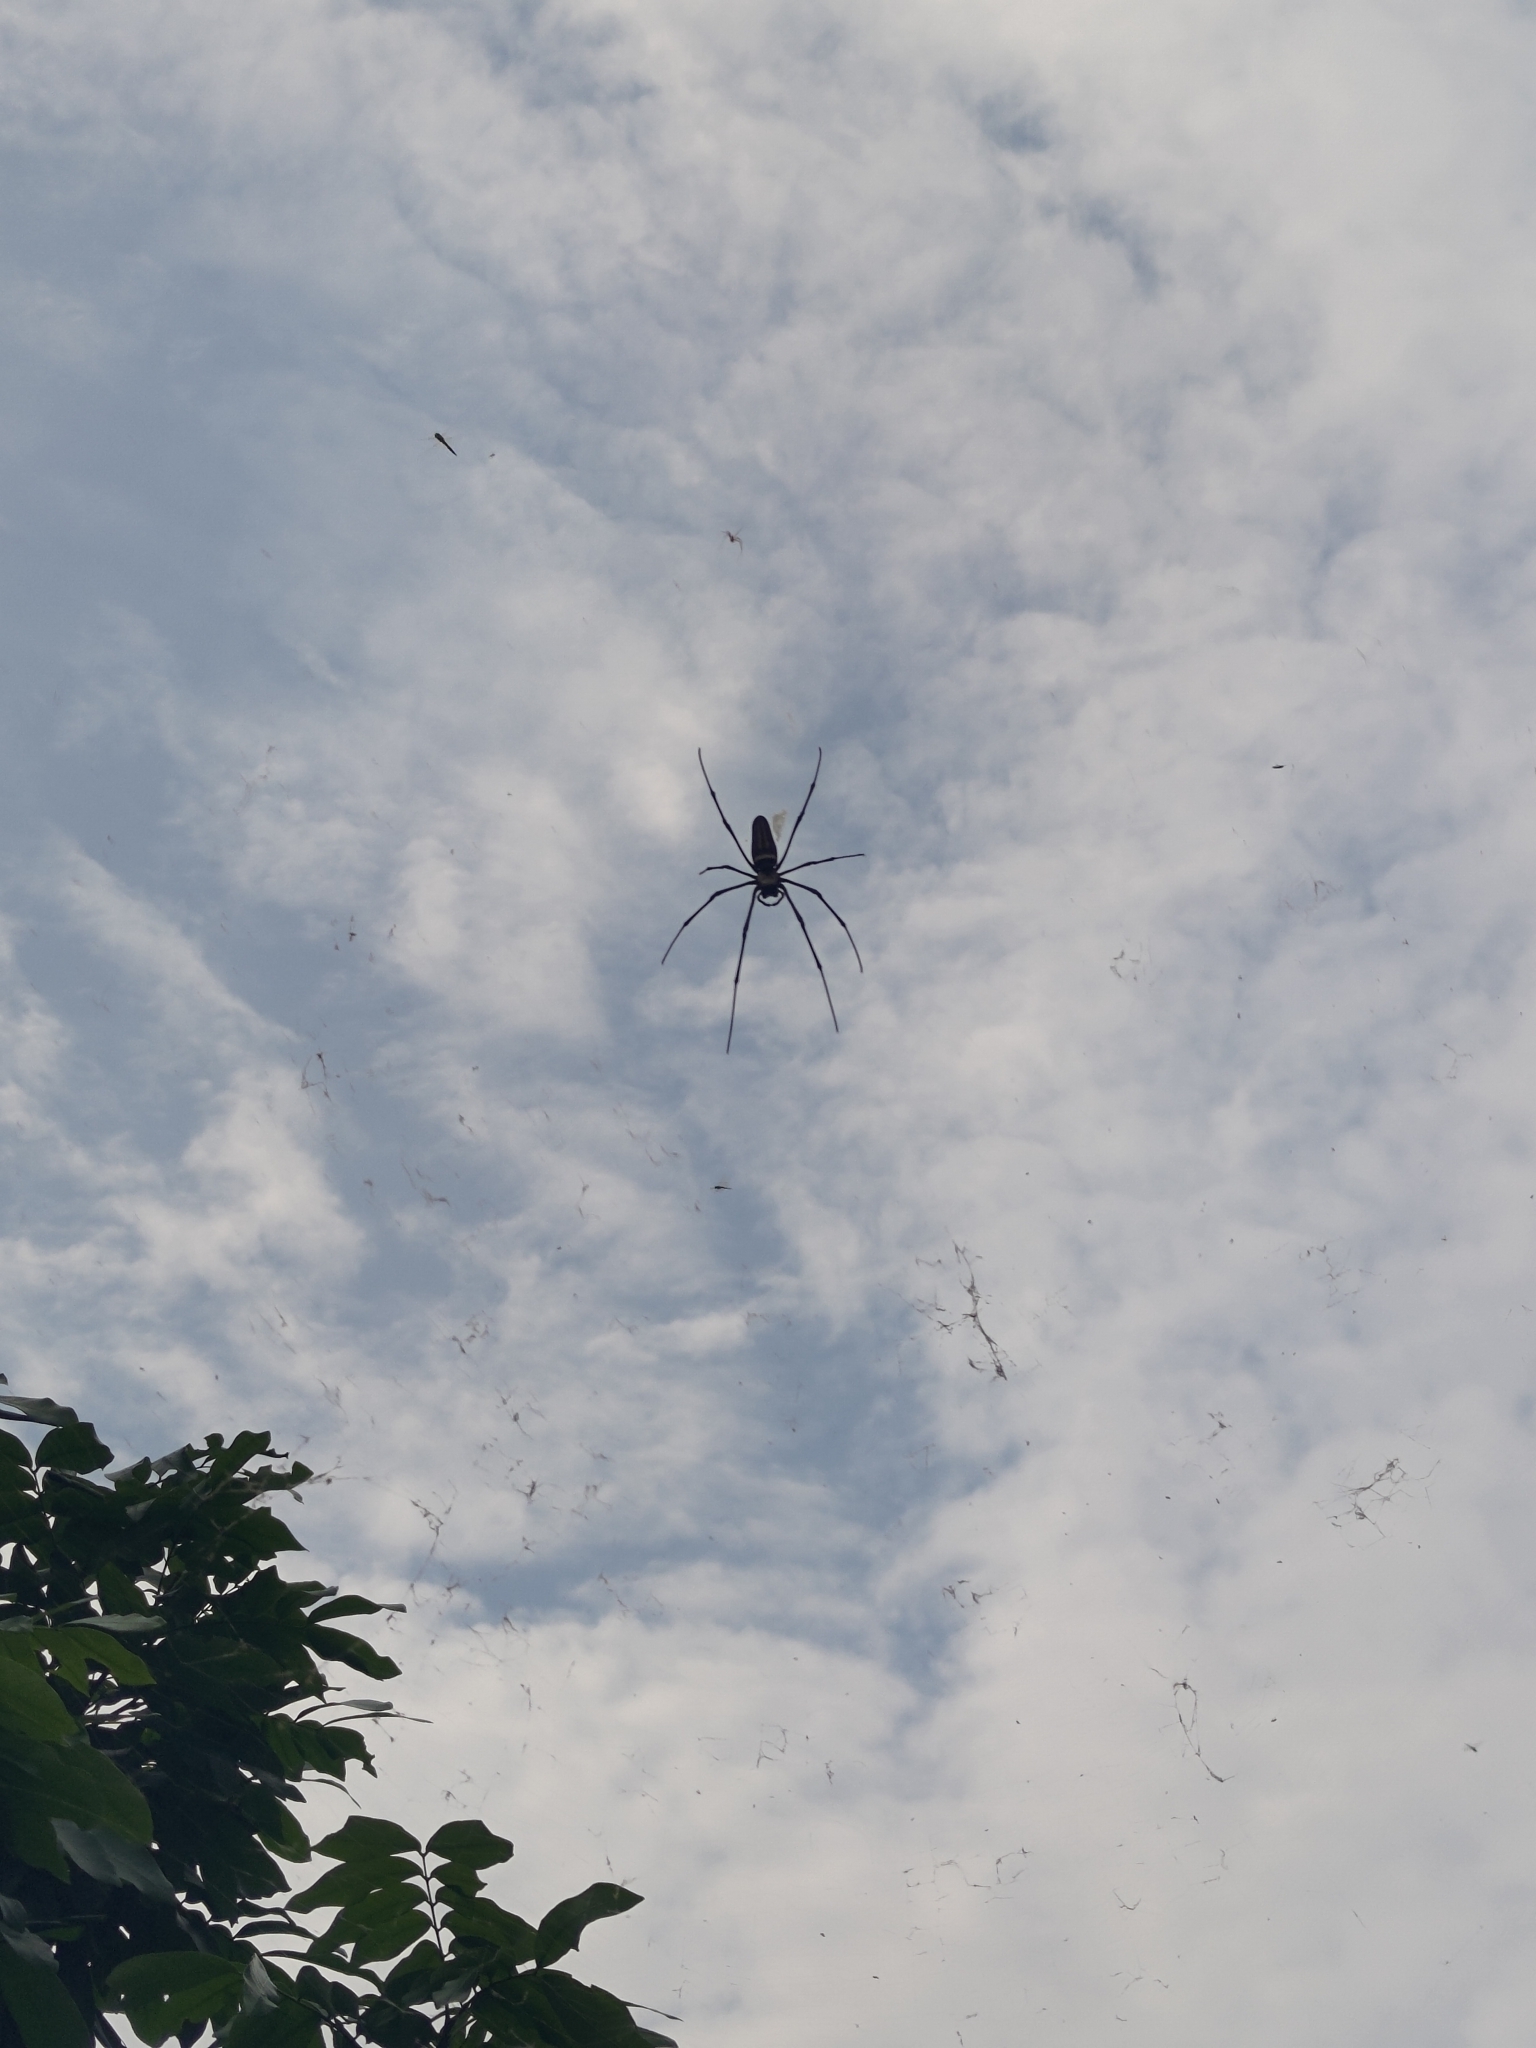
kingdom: Animalia
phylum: Arthropoda
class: Arachnida
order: Araneae
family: Araneidae
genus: Nephila
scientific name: Nephila pilipes
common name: Giant golden orb weaver
